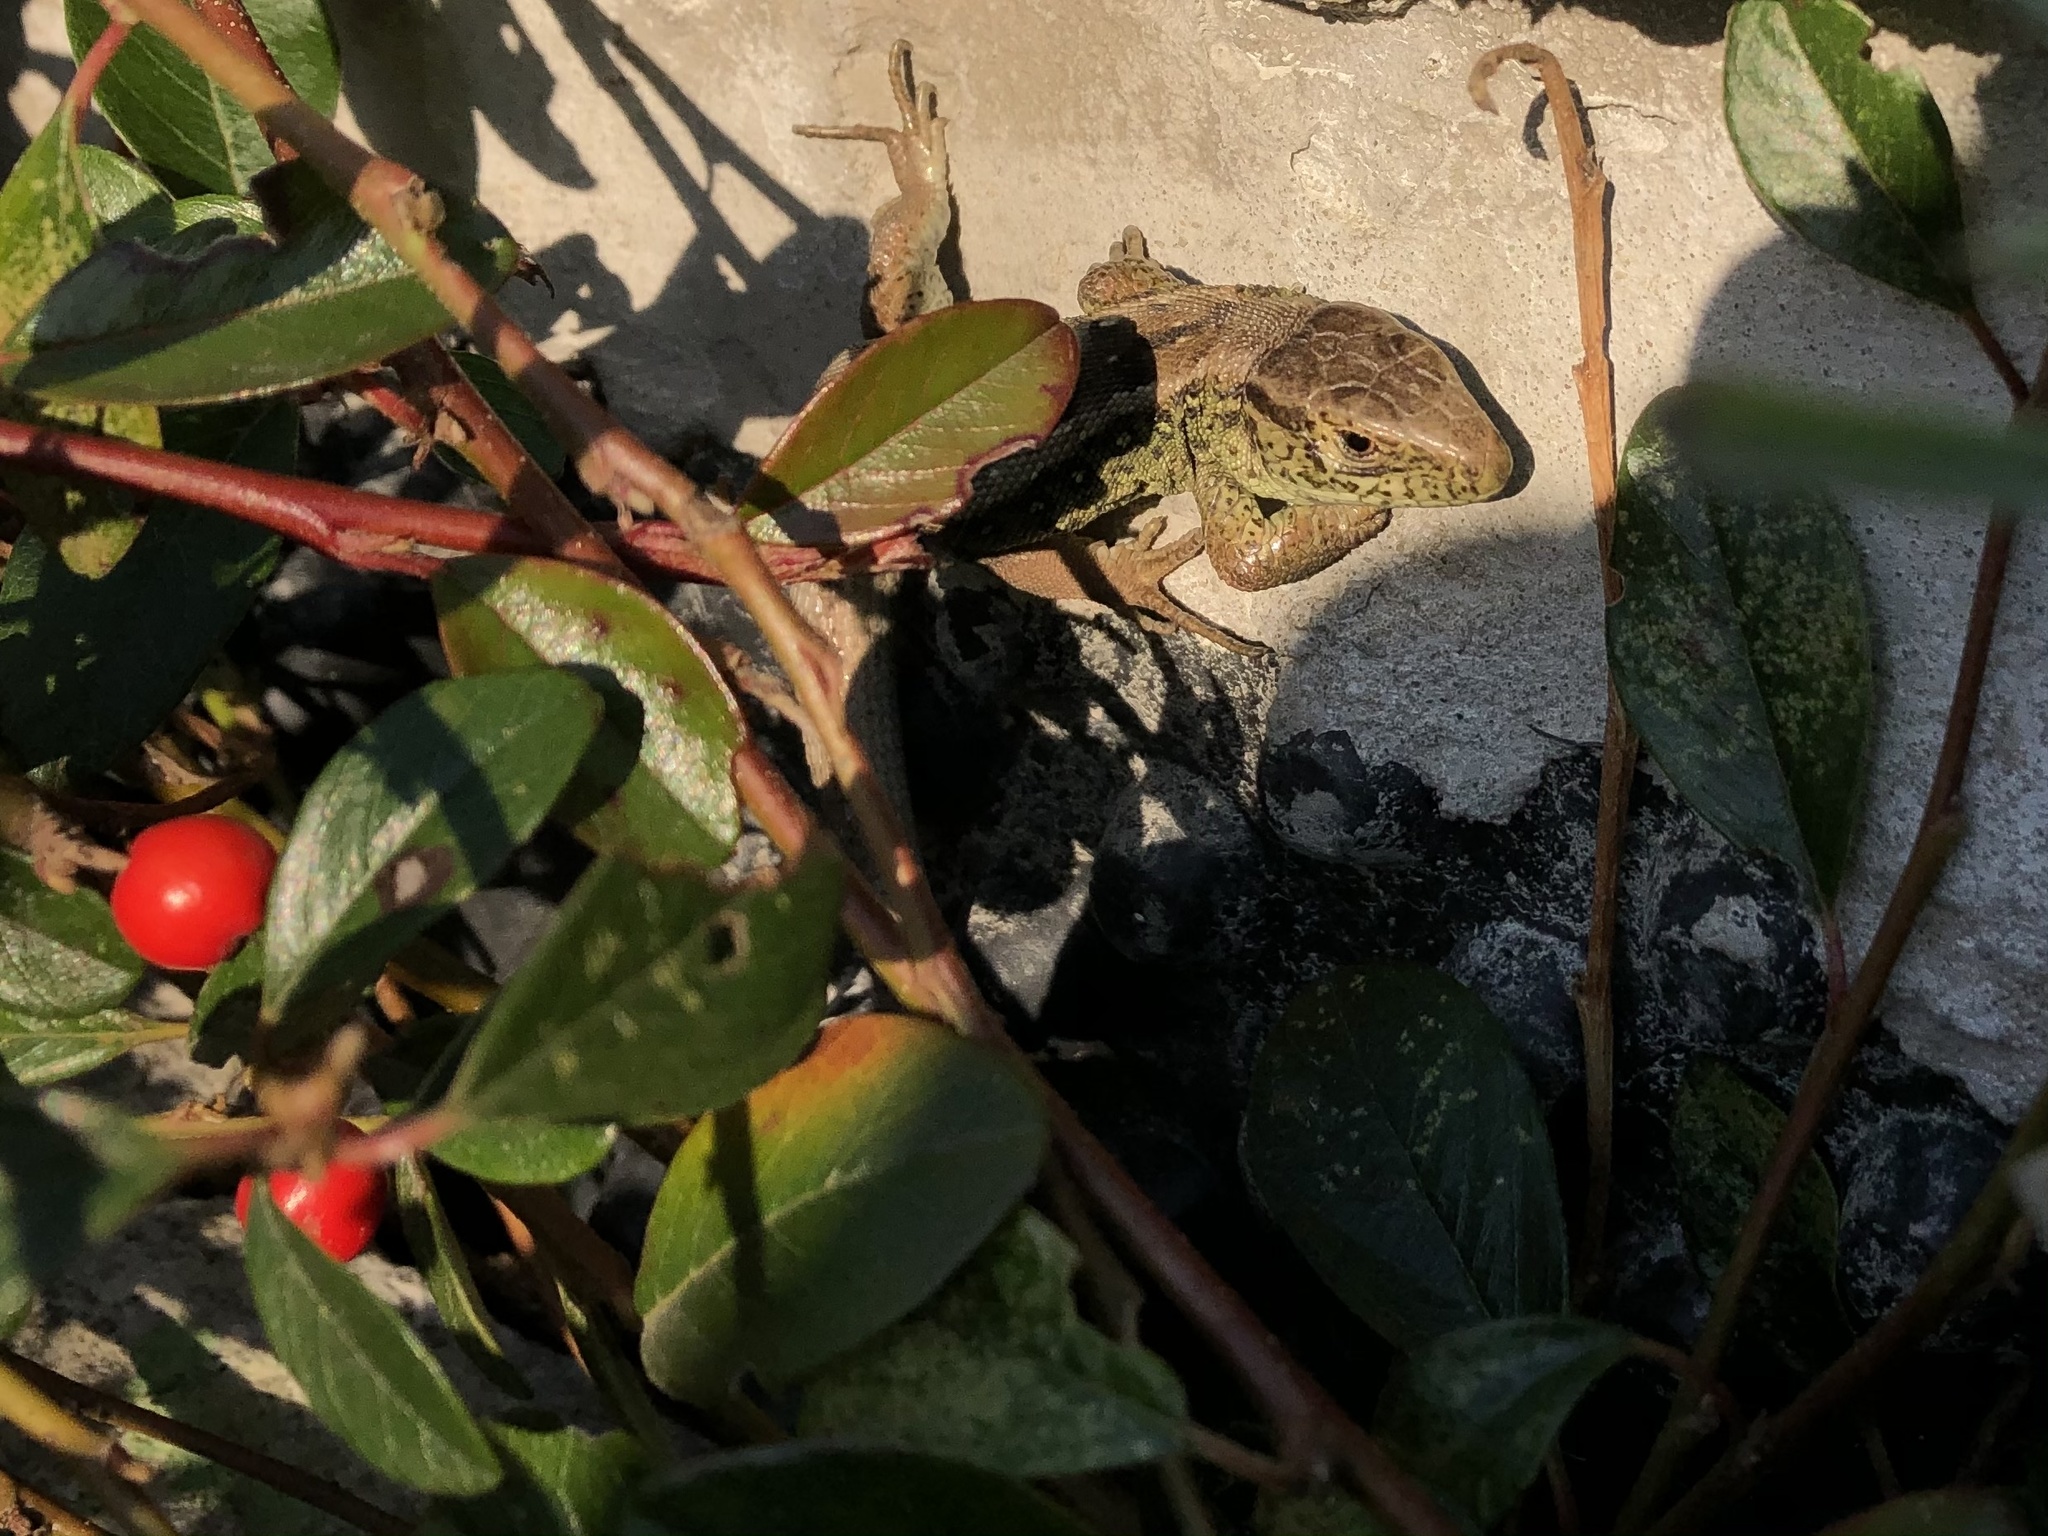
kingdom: Animalia
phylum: Chordata
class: Squamata
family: Lacertidae
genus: Lacerta
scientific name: Lacerta agilis
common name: Sand lizard
